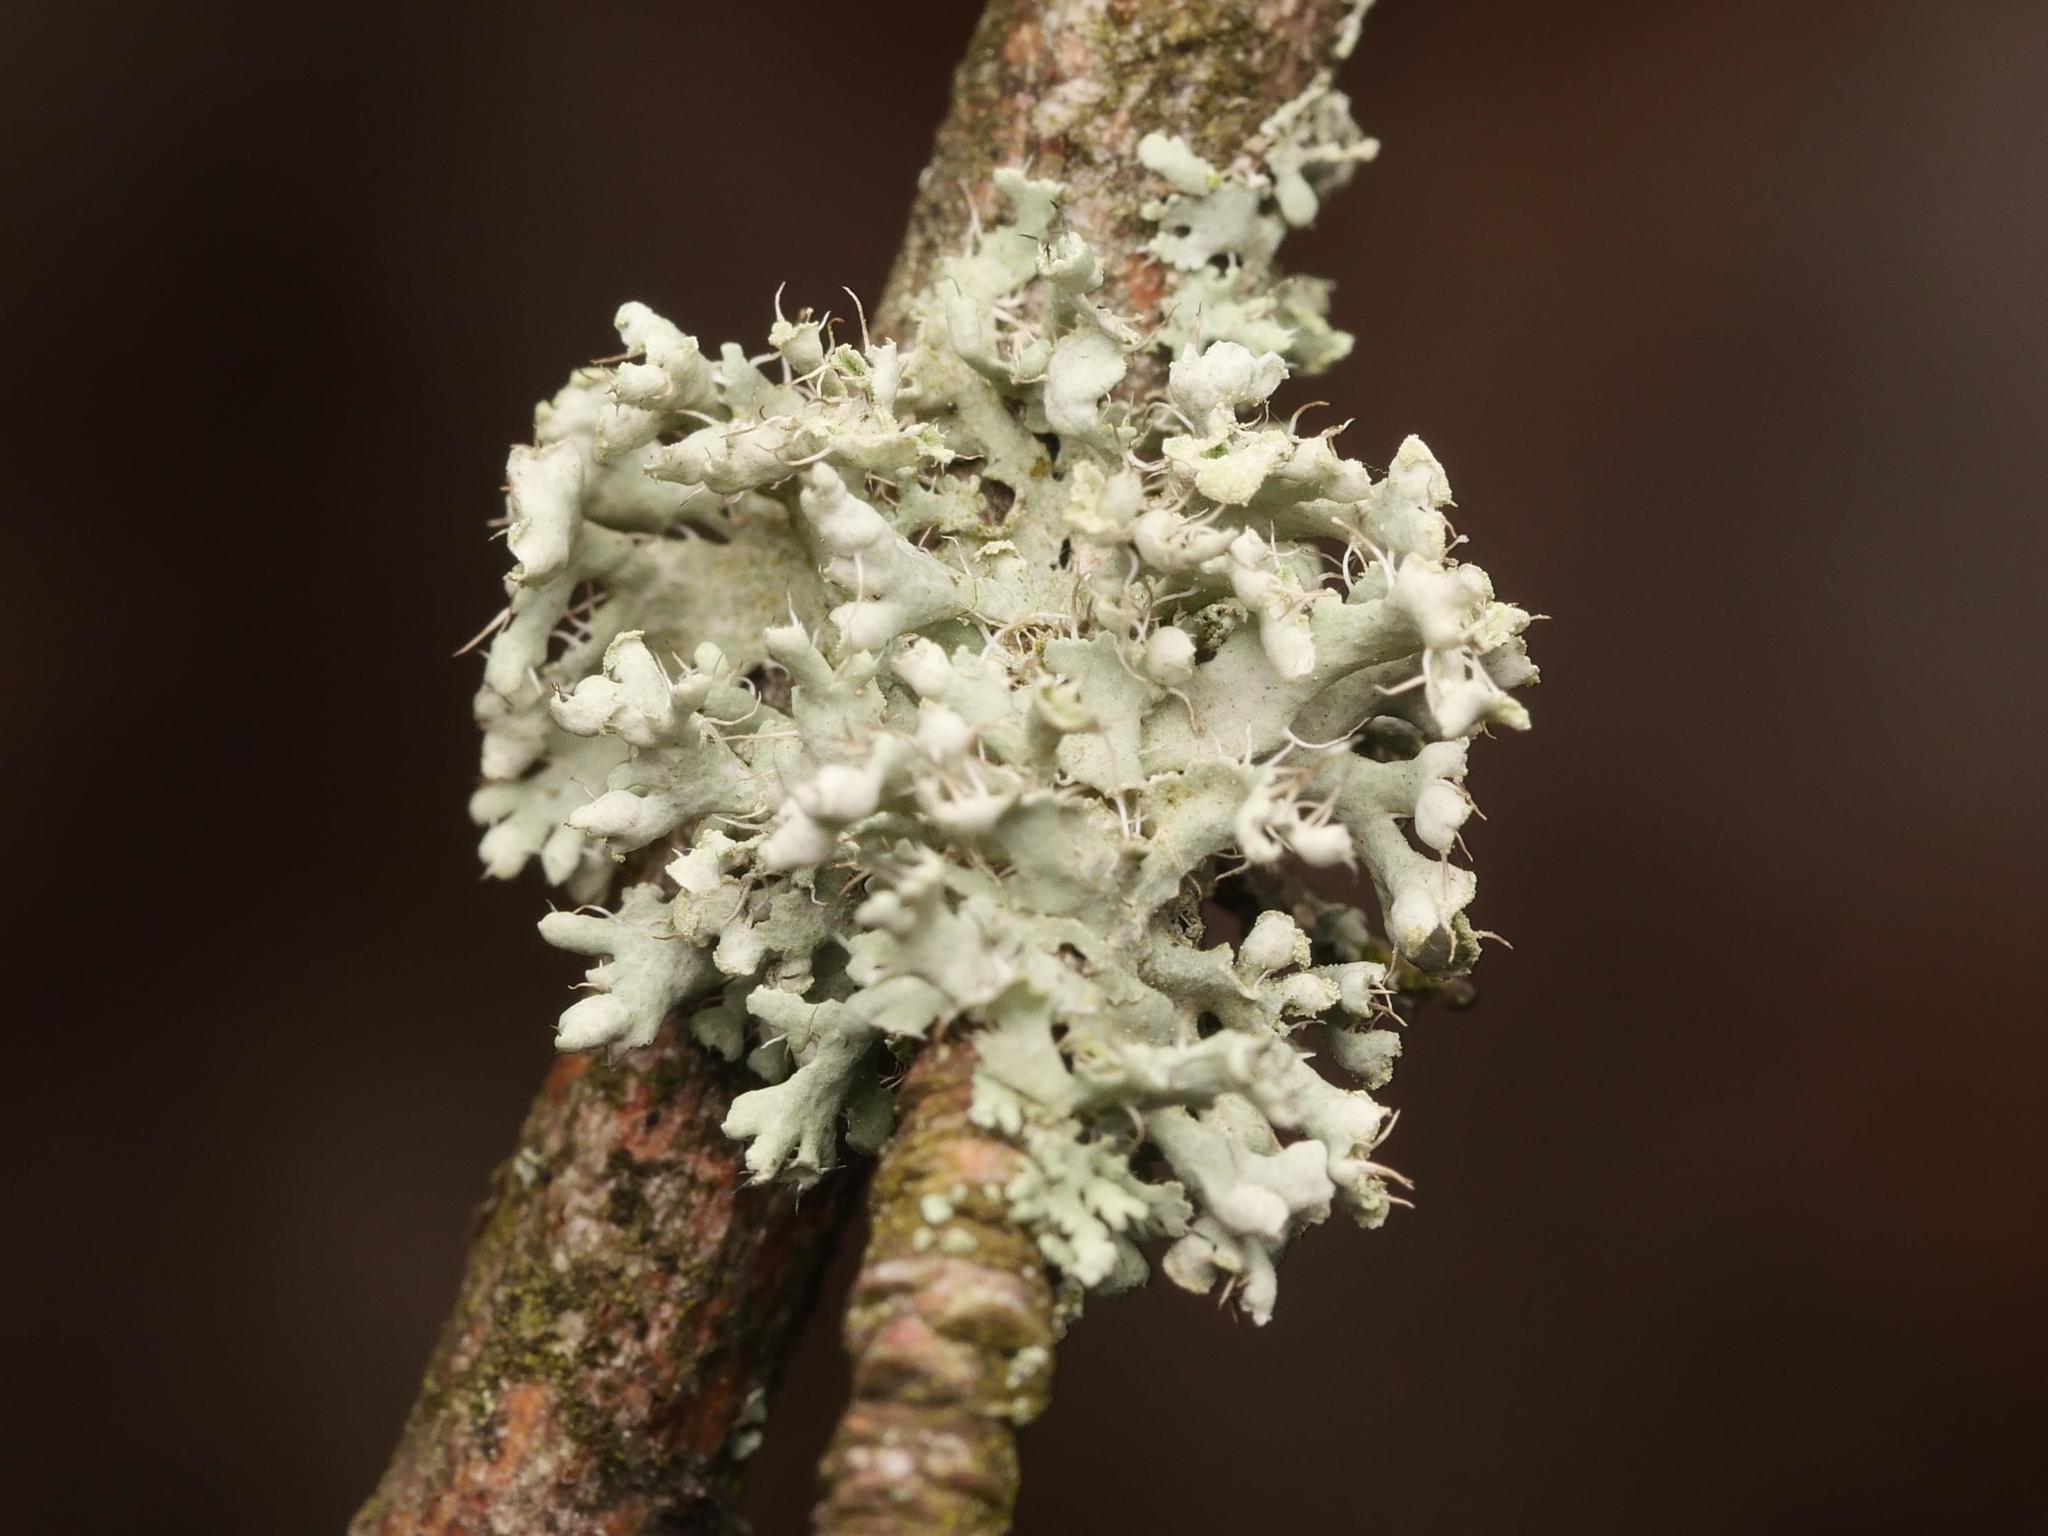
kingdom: Fungi
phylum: Ascomycota
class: Lecanoromycetes
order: Caliciales
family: Physciaceae
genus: Physcia
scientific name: Physcia adscendens
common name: Hooded rosette lichen
